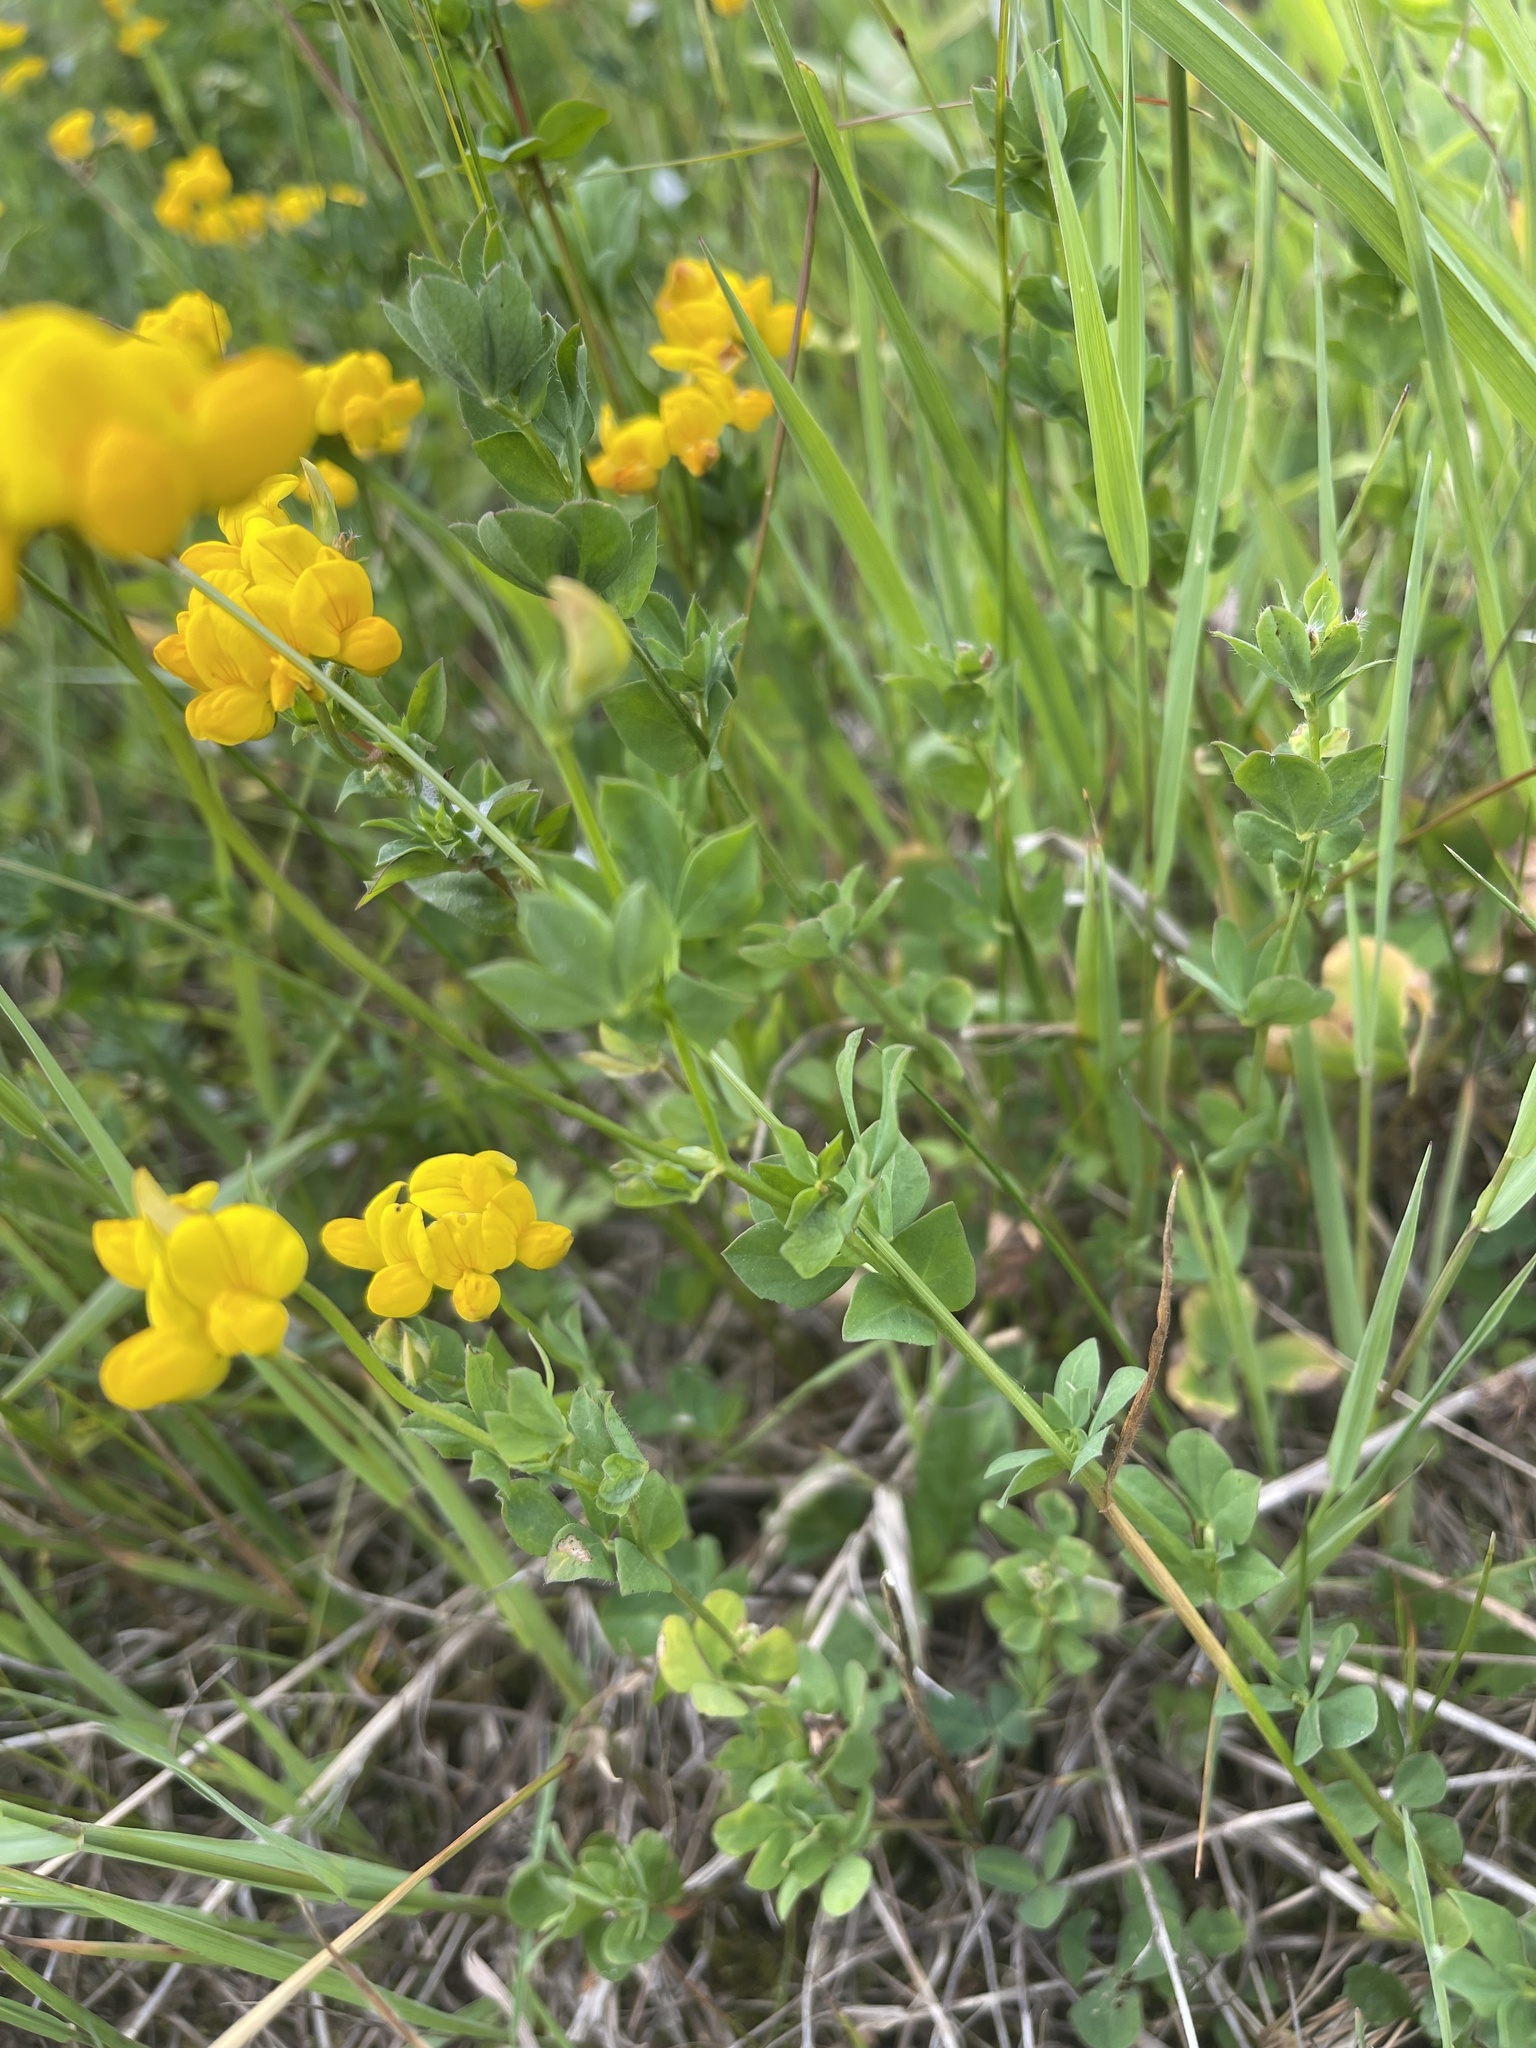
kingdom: Plantae
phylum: Tracheophyta
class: Magnoliopsida
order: Fabales
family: Fabaceae
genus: Lotus
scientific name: Lotus corniculatus
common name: Common bird's-foot-trefoil
